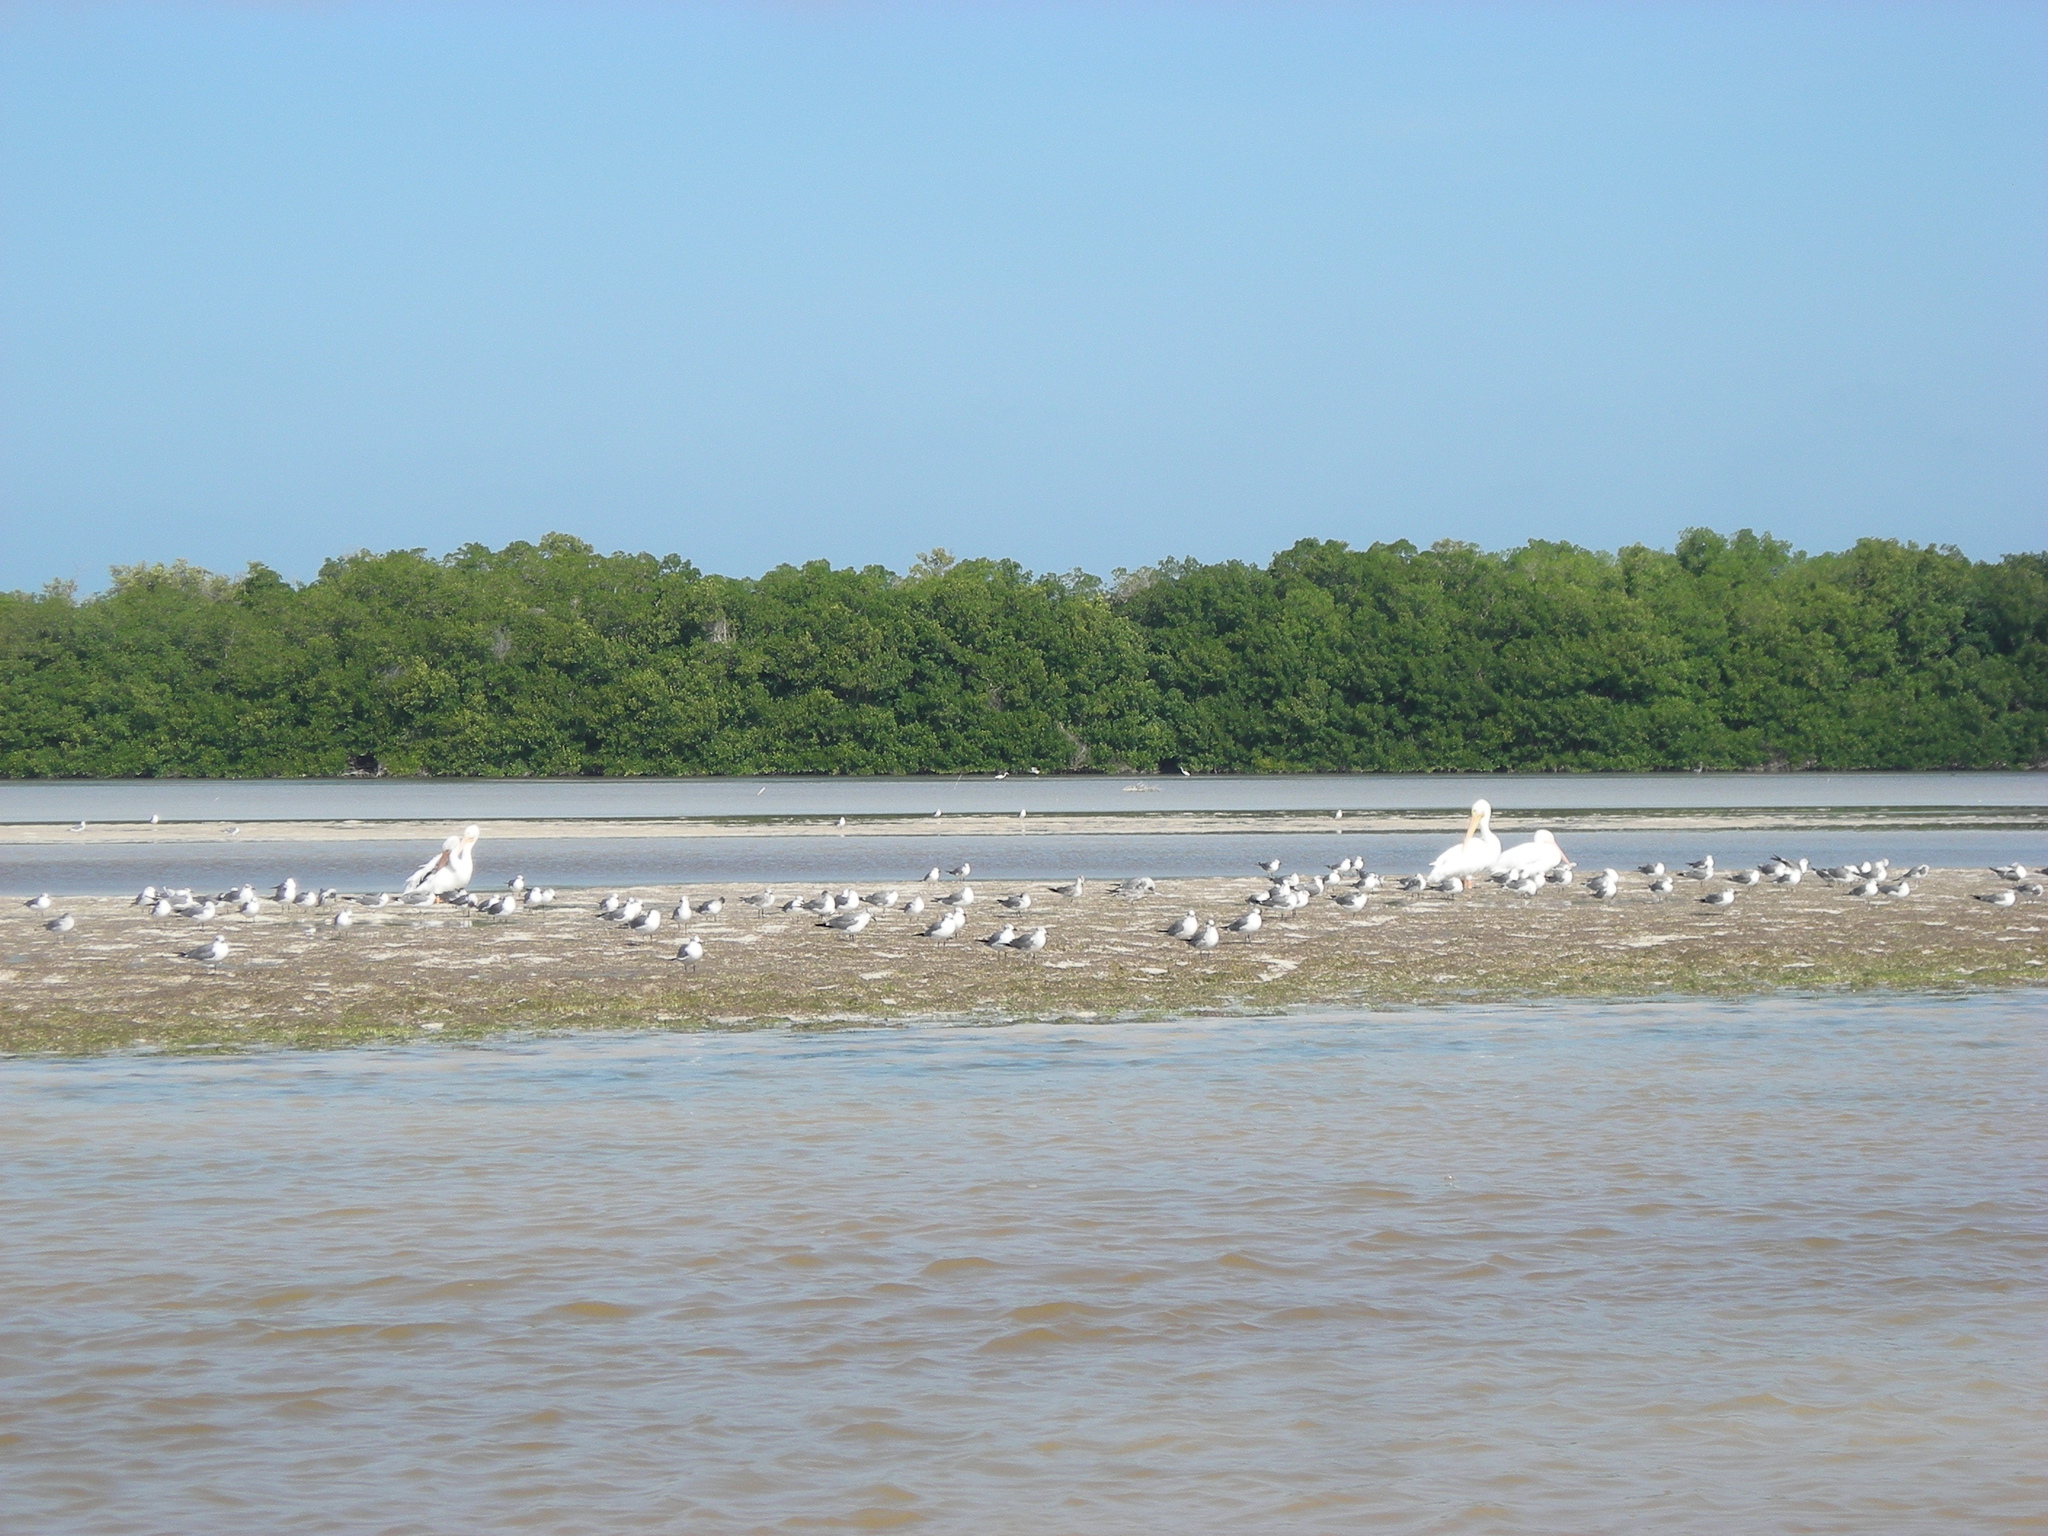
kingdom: Animalia
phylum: Chordata
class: Aves
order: Pelecaniformes
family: Pelecanidae
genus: Pelecanus
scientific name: Pelecanus erythrorhynchos
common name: American white pelican
